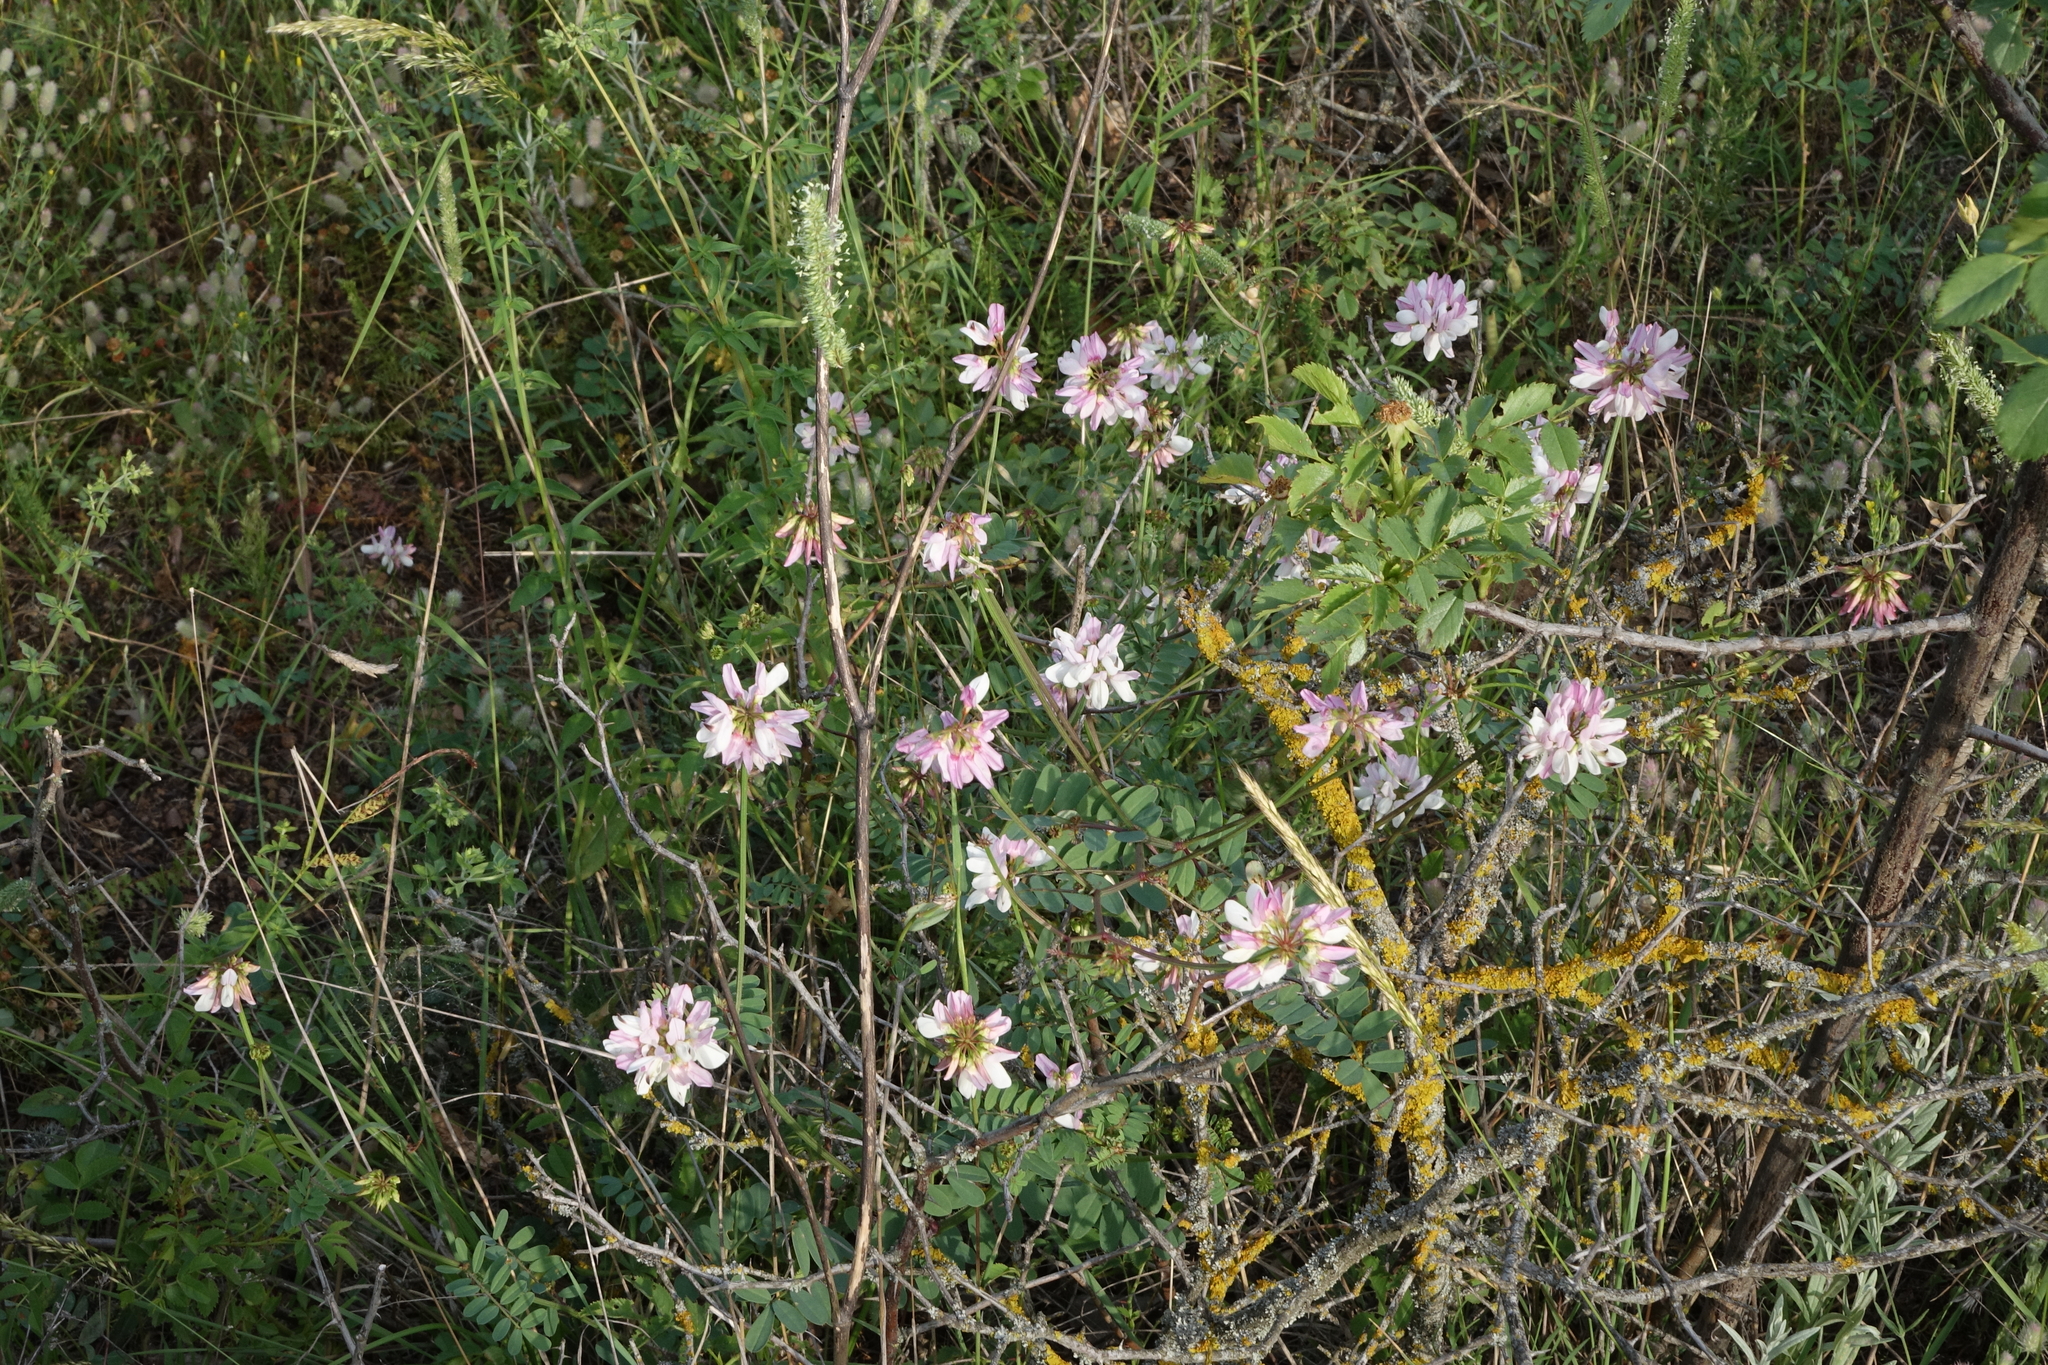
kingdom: Plantae
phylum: Tracheophyta
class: Magnoliopsida
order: Fabales
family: Fabaceae
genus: Coronilla
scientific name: Coronilla varia
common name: Crownvetch
